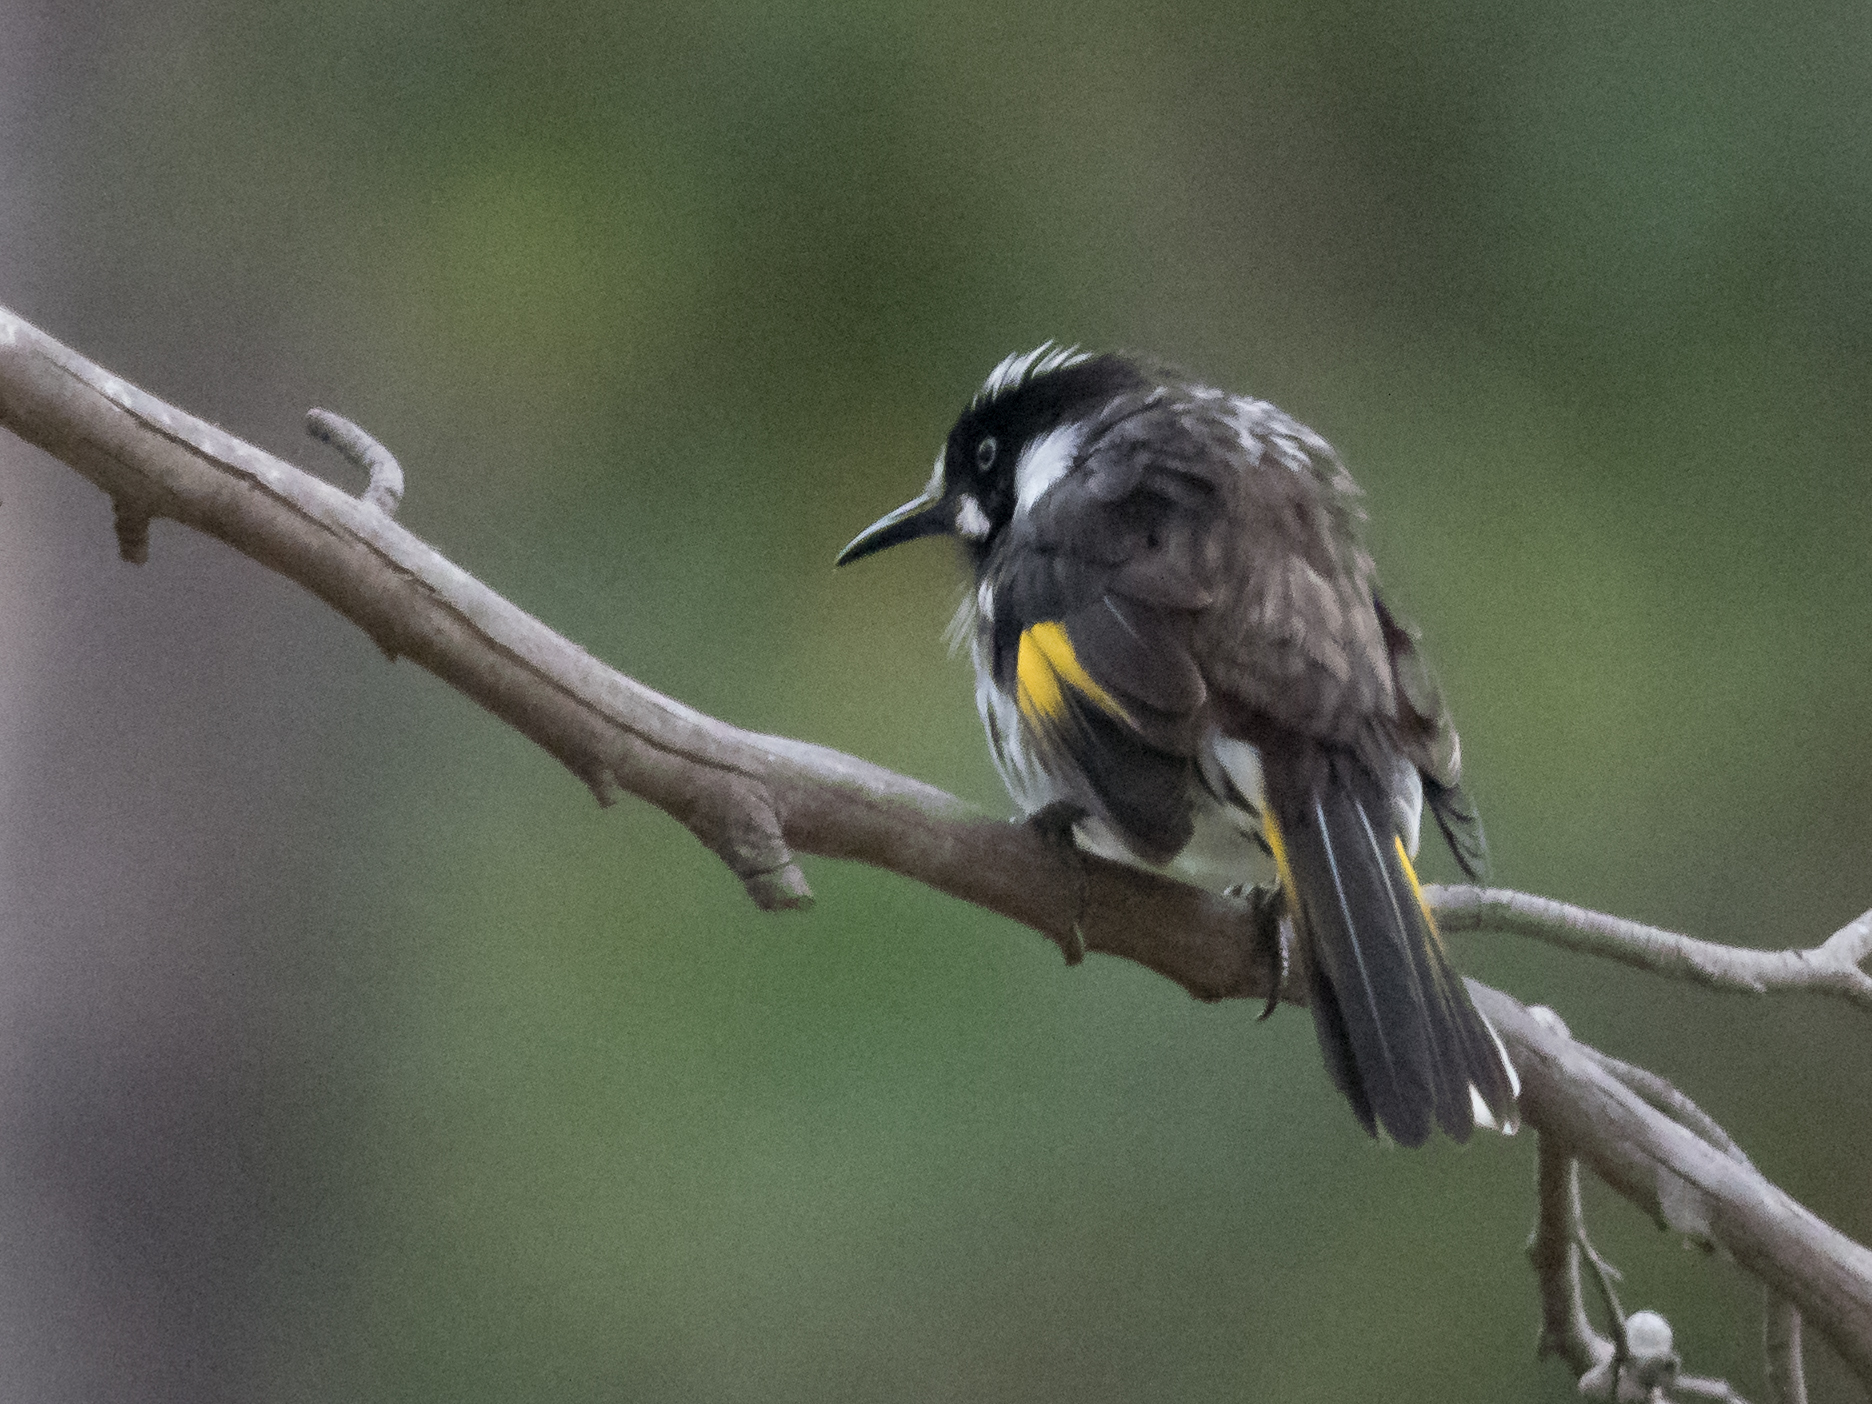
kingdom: Animalia
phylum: Chordata
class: Aves
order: Passeriformes
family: Meliphagidae
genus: Phylidonyris
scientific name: Phylidonyris novaehollandiae
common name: New holland honeyeater
